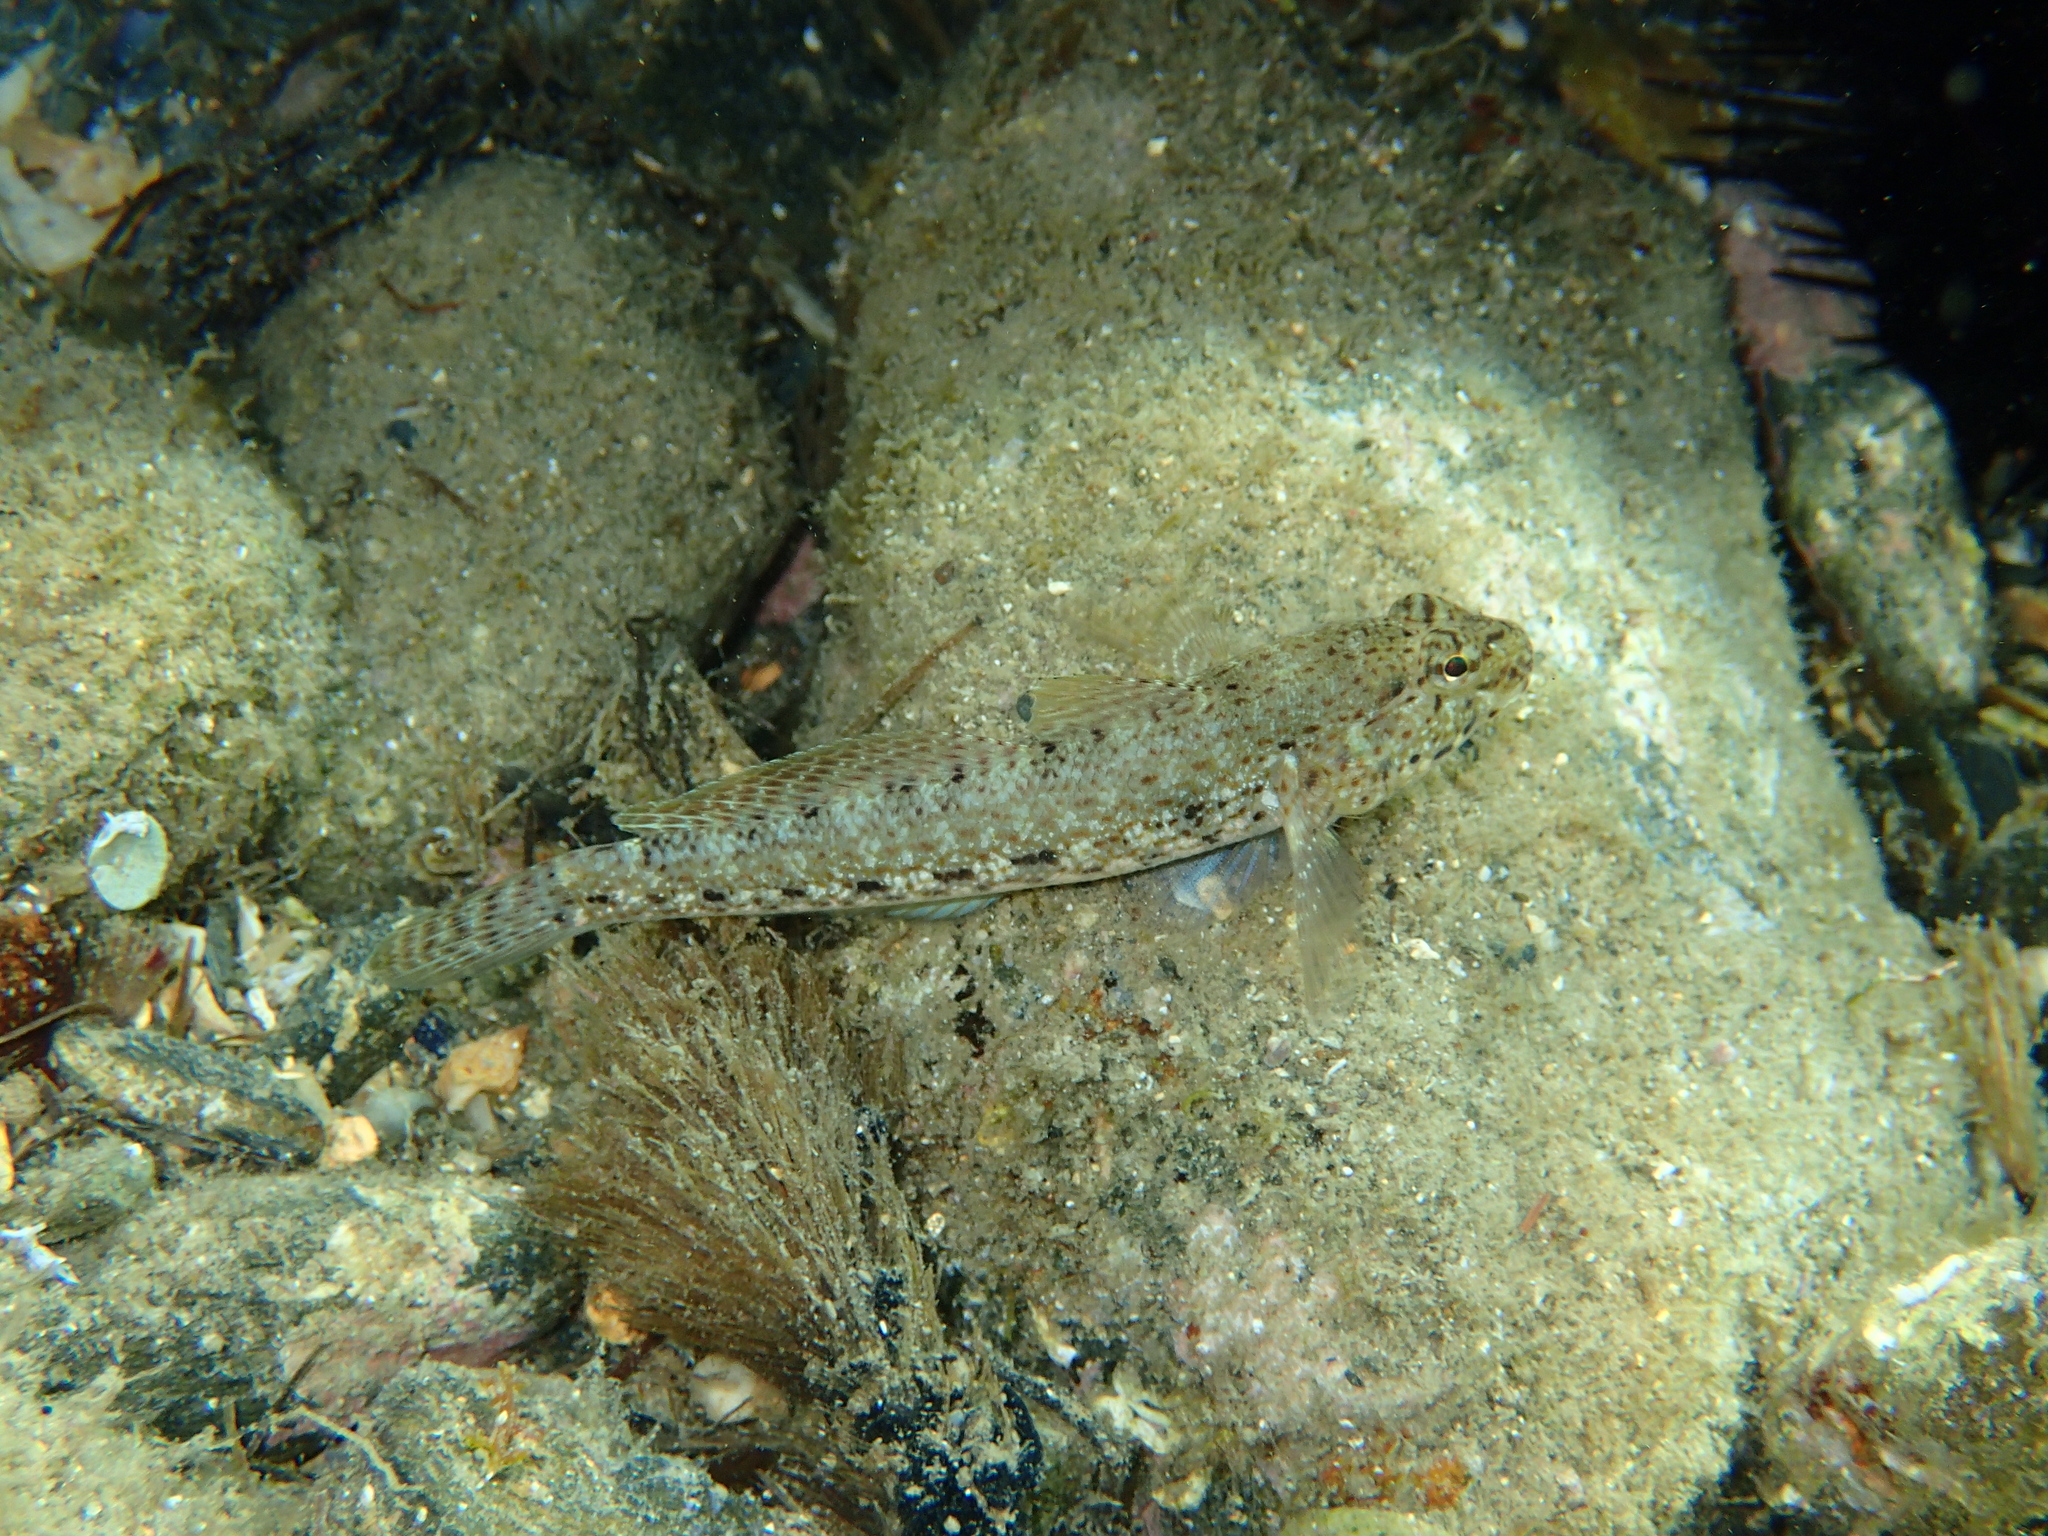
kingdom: Animalia
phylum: Chordata
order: Perciformes
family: Gobiidae
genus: Gobius
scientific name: Gobius incognitus
